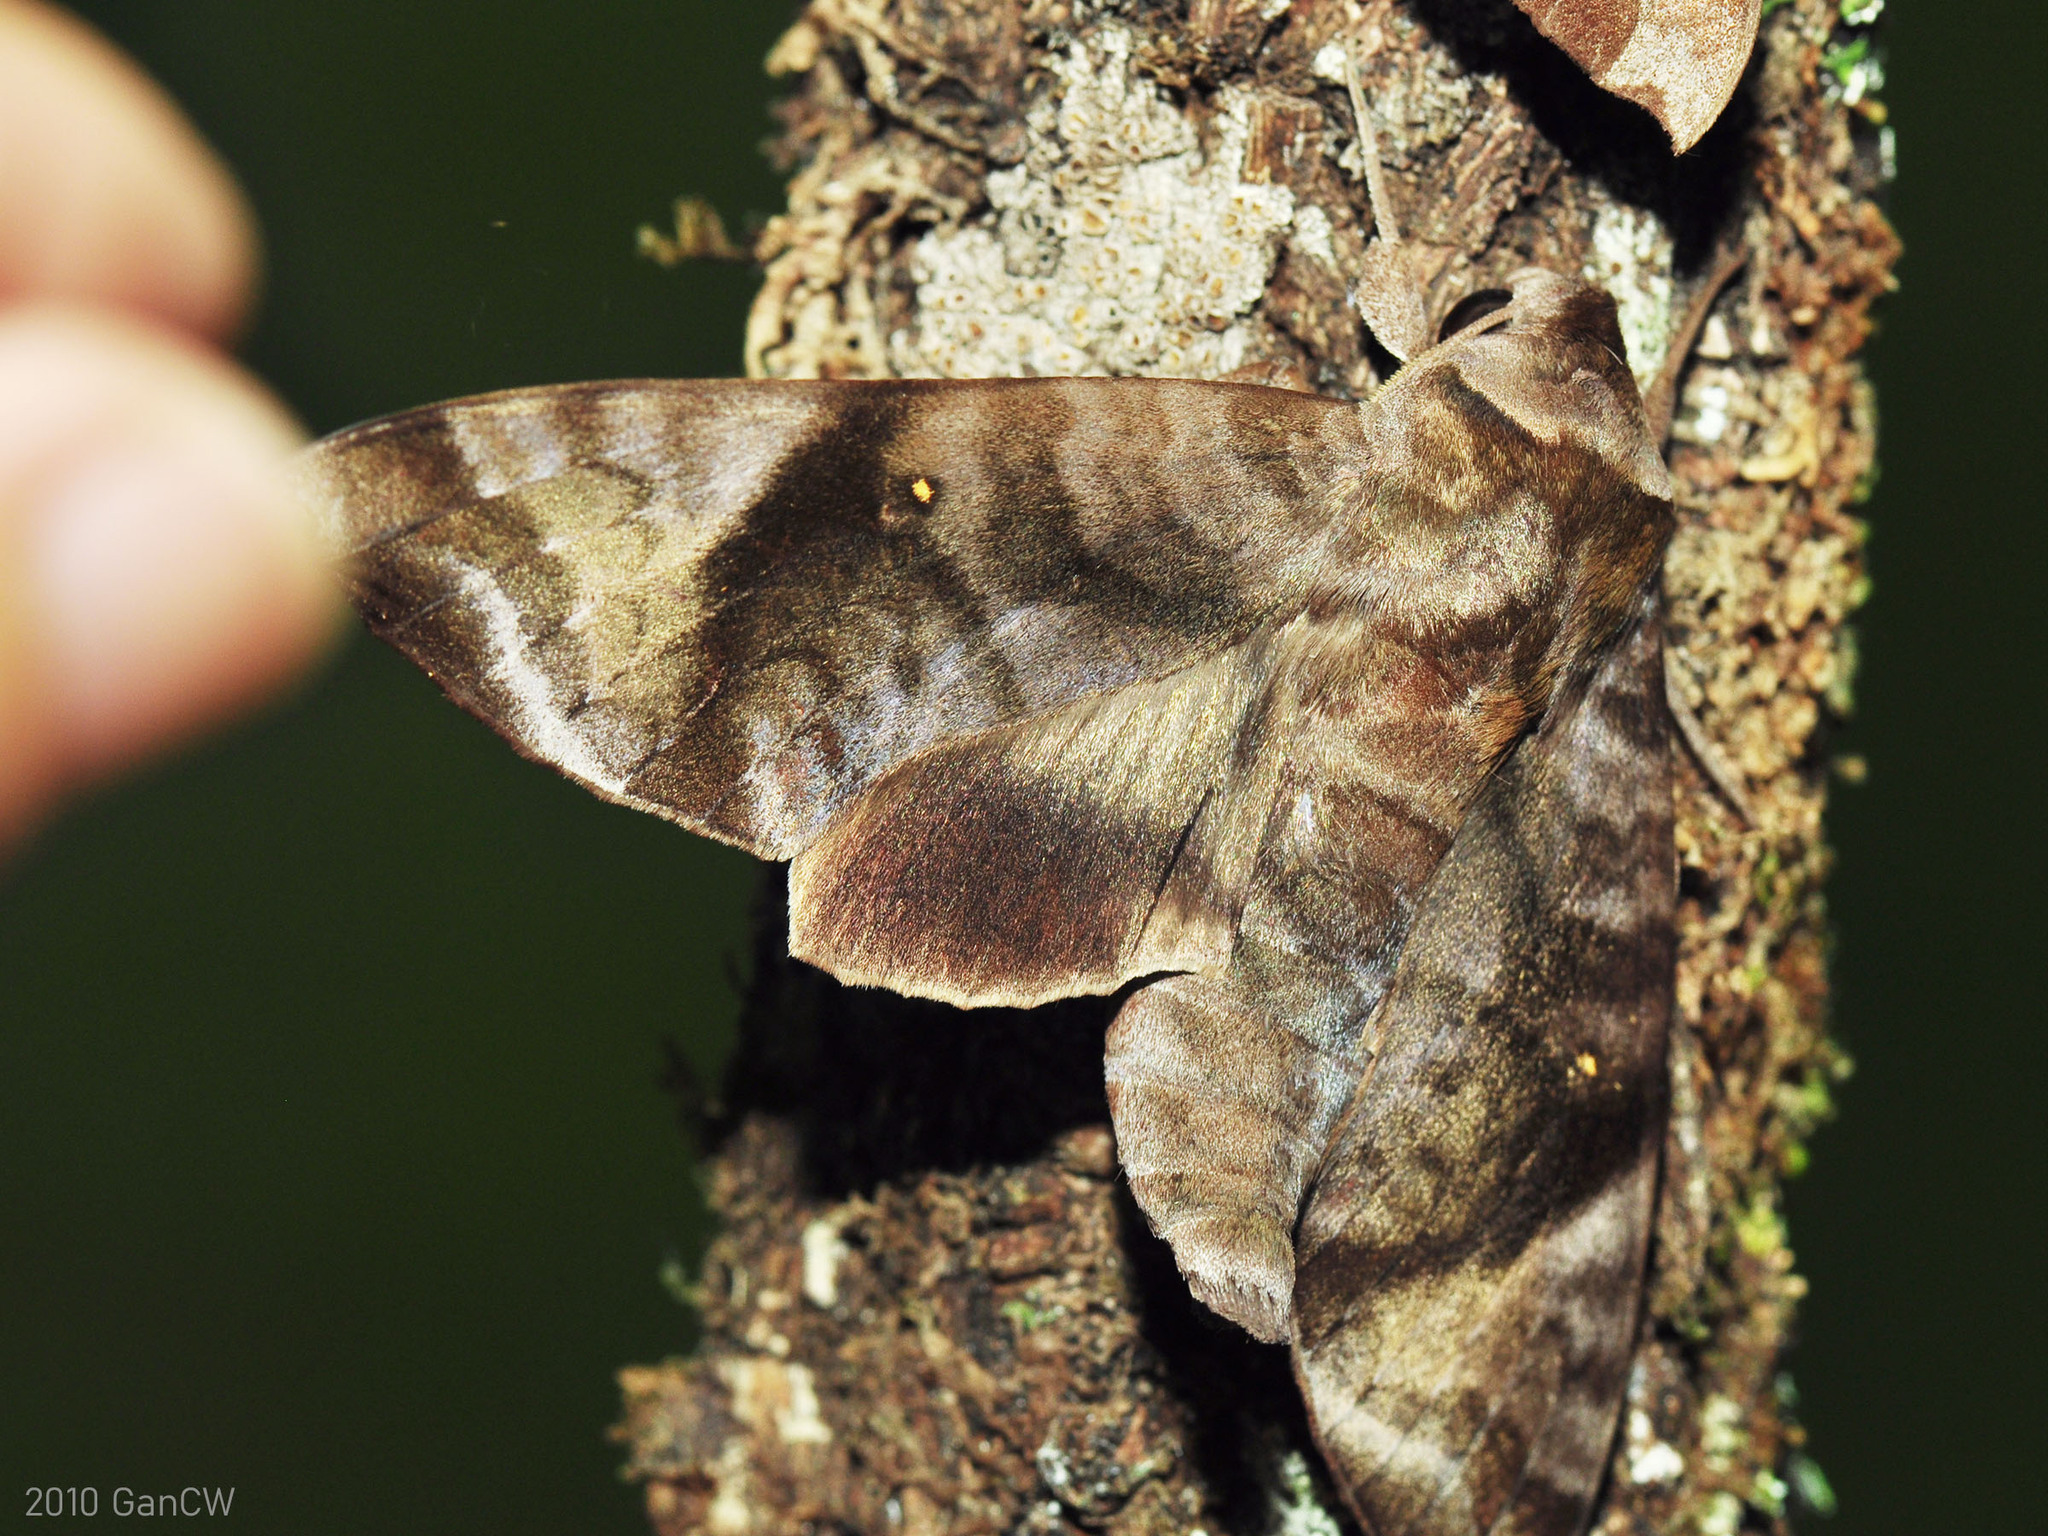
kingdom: Animalia
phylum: Arthropoda
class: Insecta
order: Lepidoptera
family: Sphingidae
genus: Acosmeryx
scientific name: Acosmeryx pseudonaga
